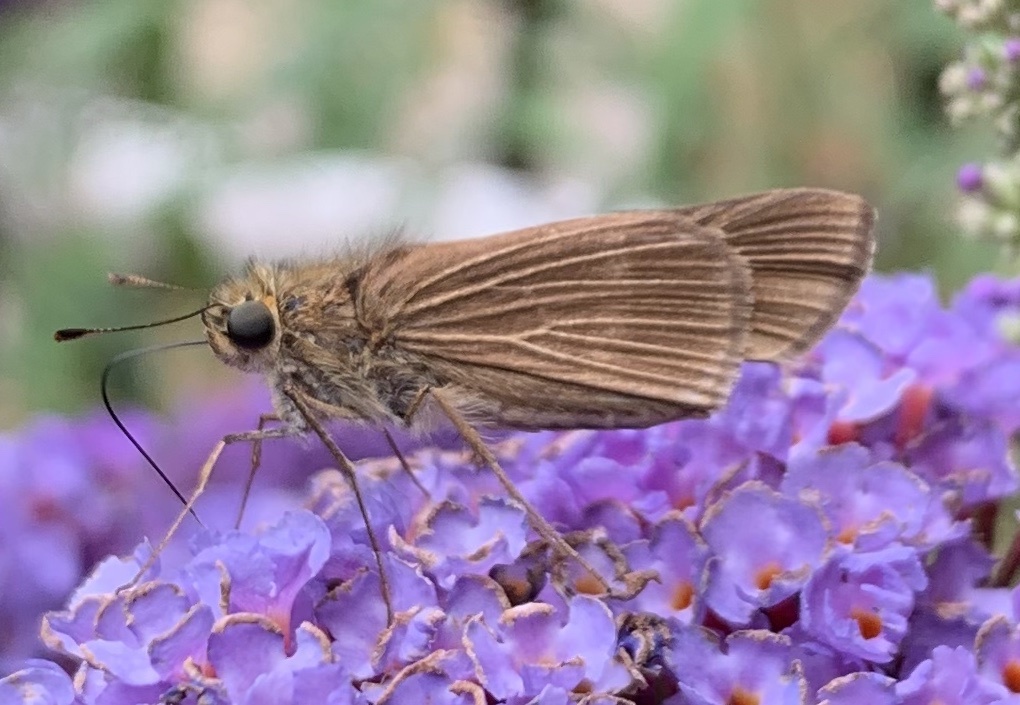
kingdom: Animalia
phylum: Arthropoda
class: Insecta
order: Lepidoptera
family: Hesperiidae
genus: Panoquina
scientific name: Panoquina ocola
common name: Ocola skipper
